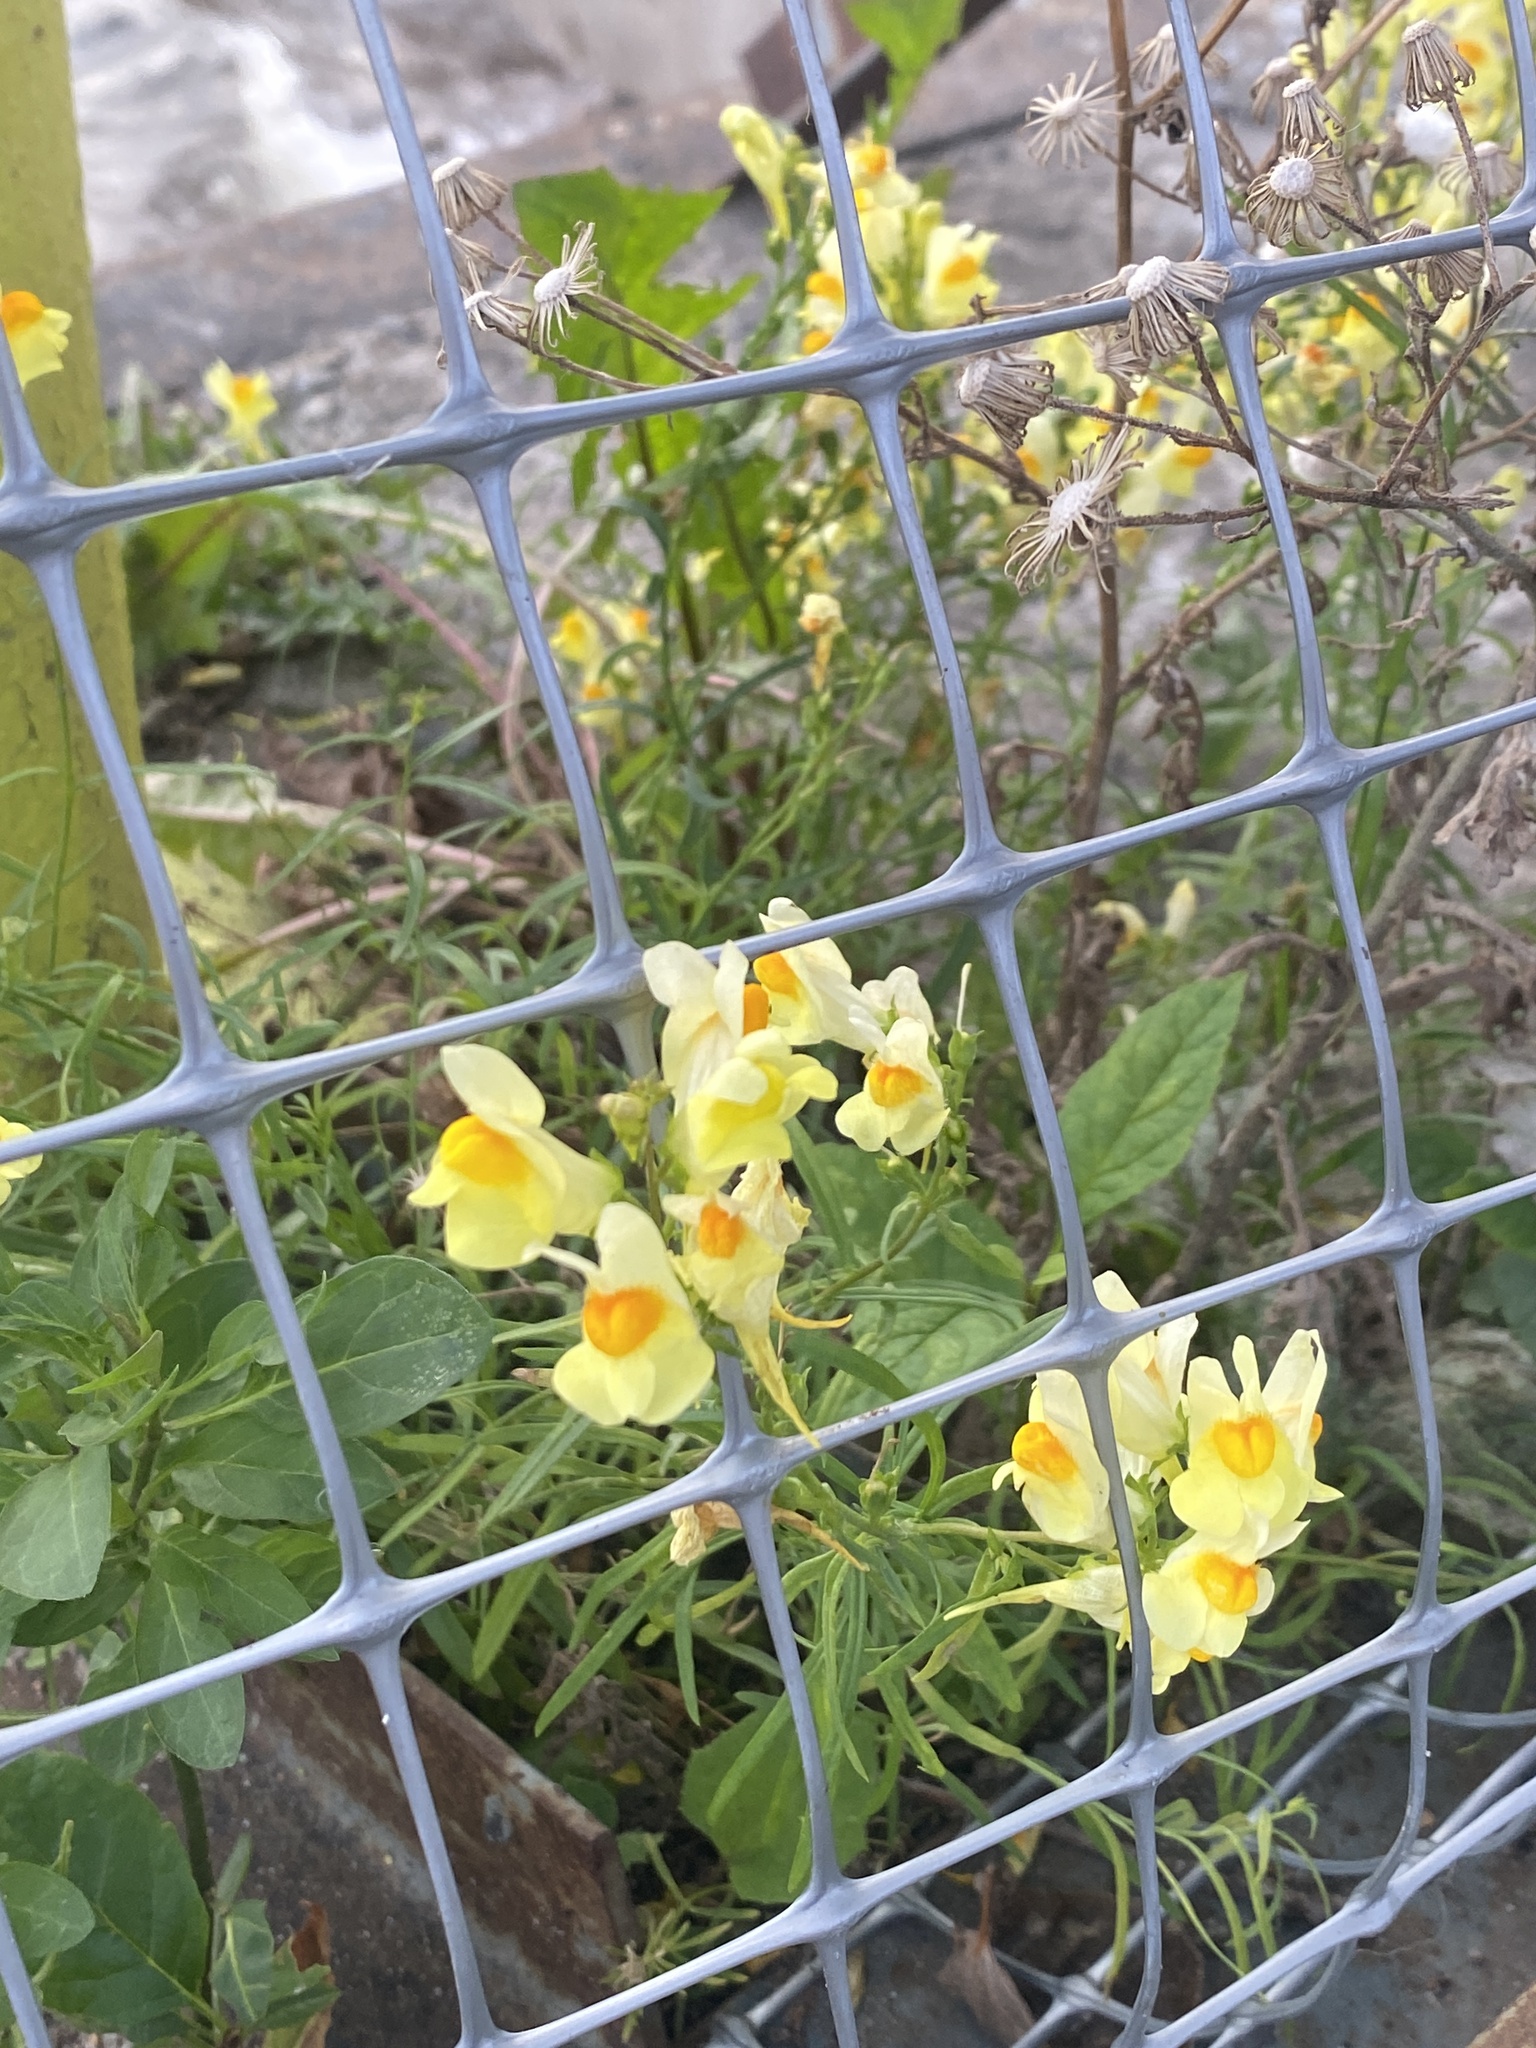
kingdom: Plantae
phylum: Tracheophyta
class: Magnoliopsida
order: Lamiales
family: Plantaginaceae
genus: Linaria
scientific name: Linaria vulgaris
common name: Butter and eggs
